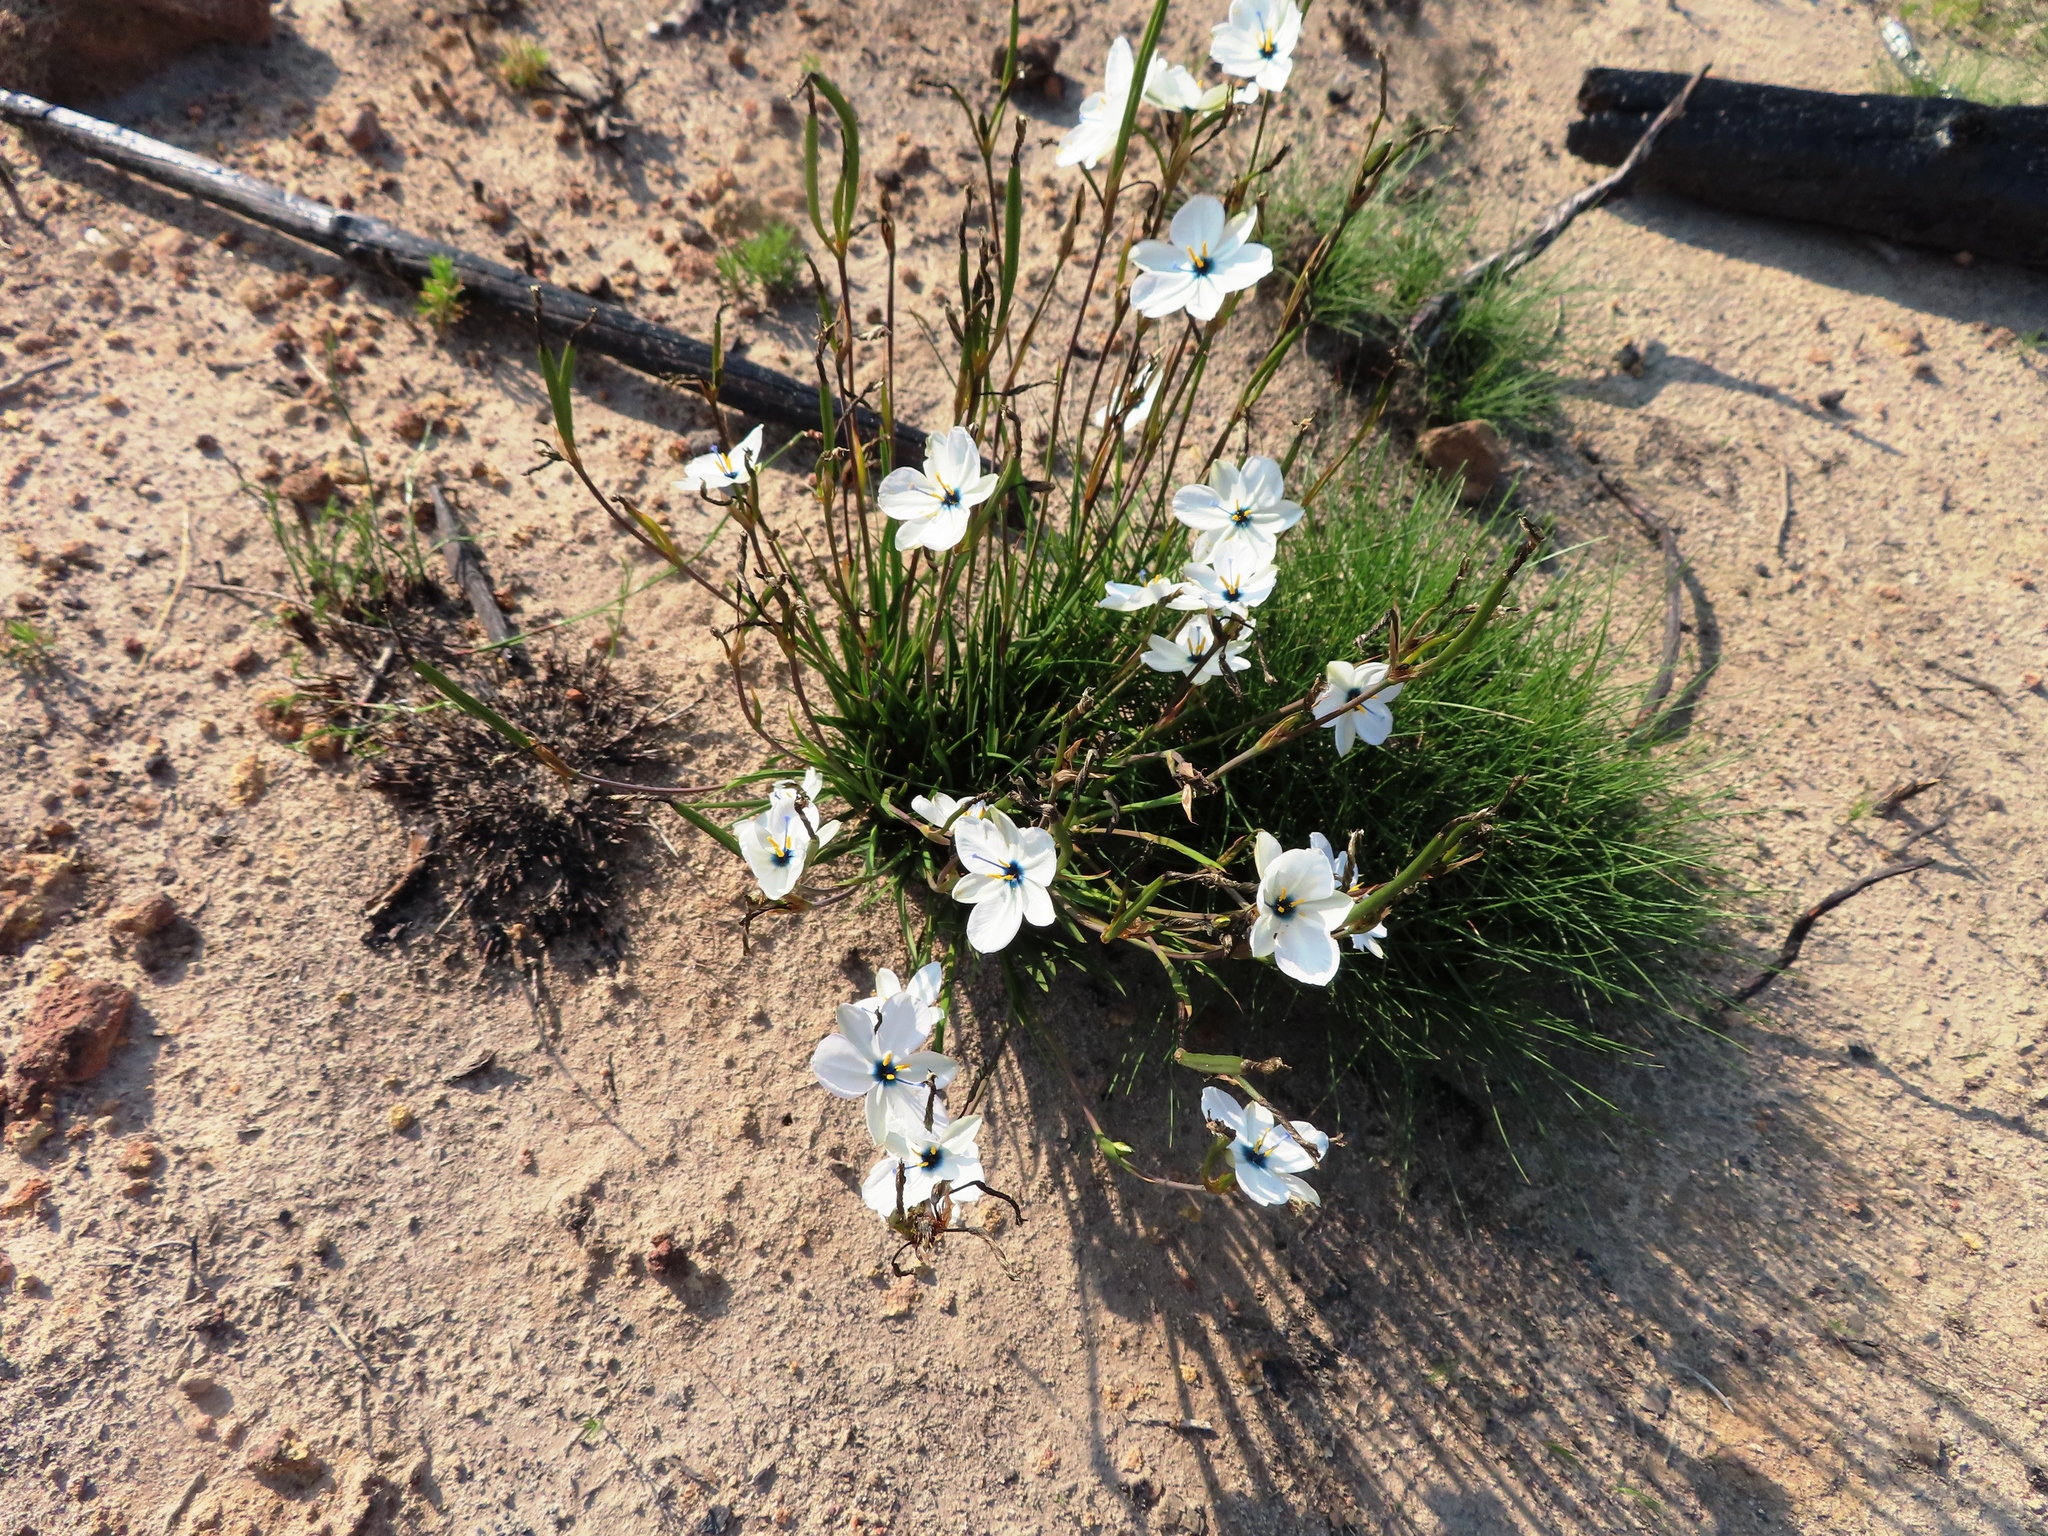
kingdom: Plantae
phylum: Tracheophyta
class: Liliopsida
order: Asparagales
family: Iridaceae
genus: Aristea
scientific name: Aristea cantharophila
